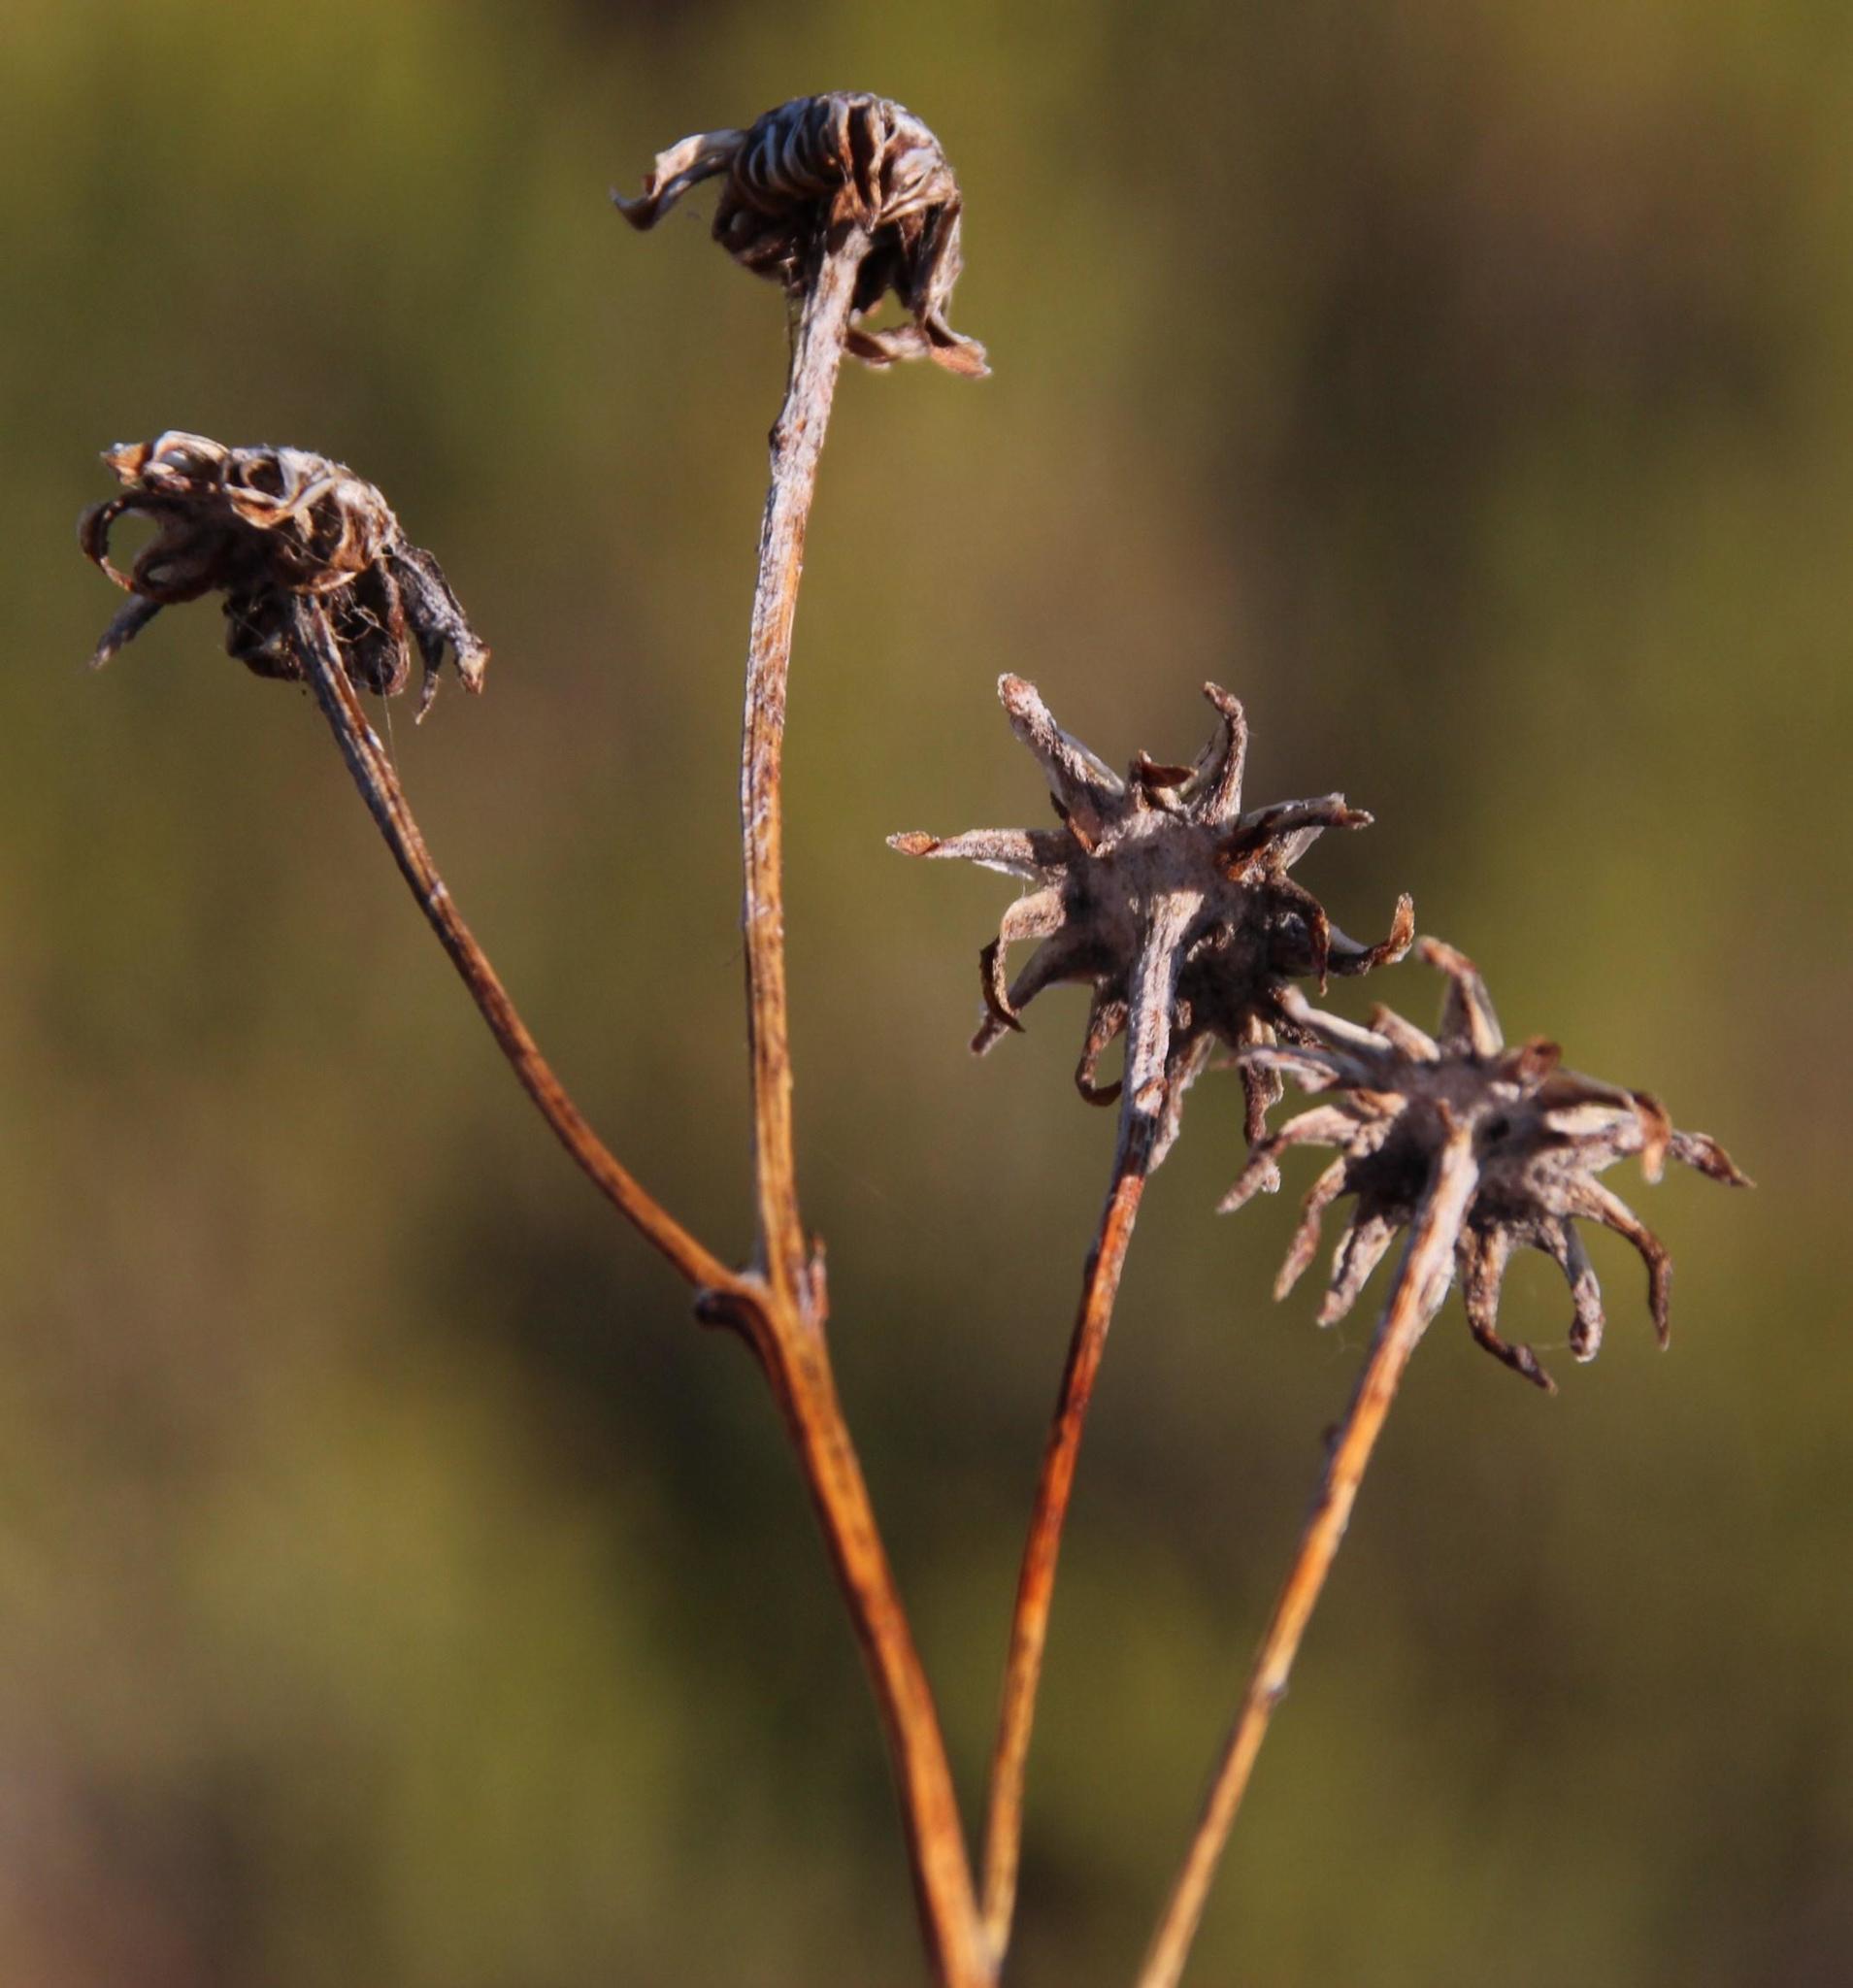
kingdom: Plantae
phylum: Tracheophyta
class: Magnoliopsida
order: Asterales
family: Asteraceae
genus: Caputia
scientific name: Caputia scaposa
